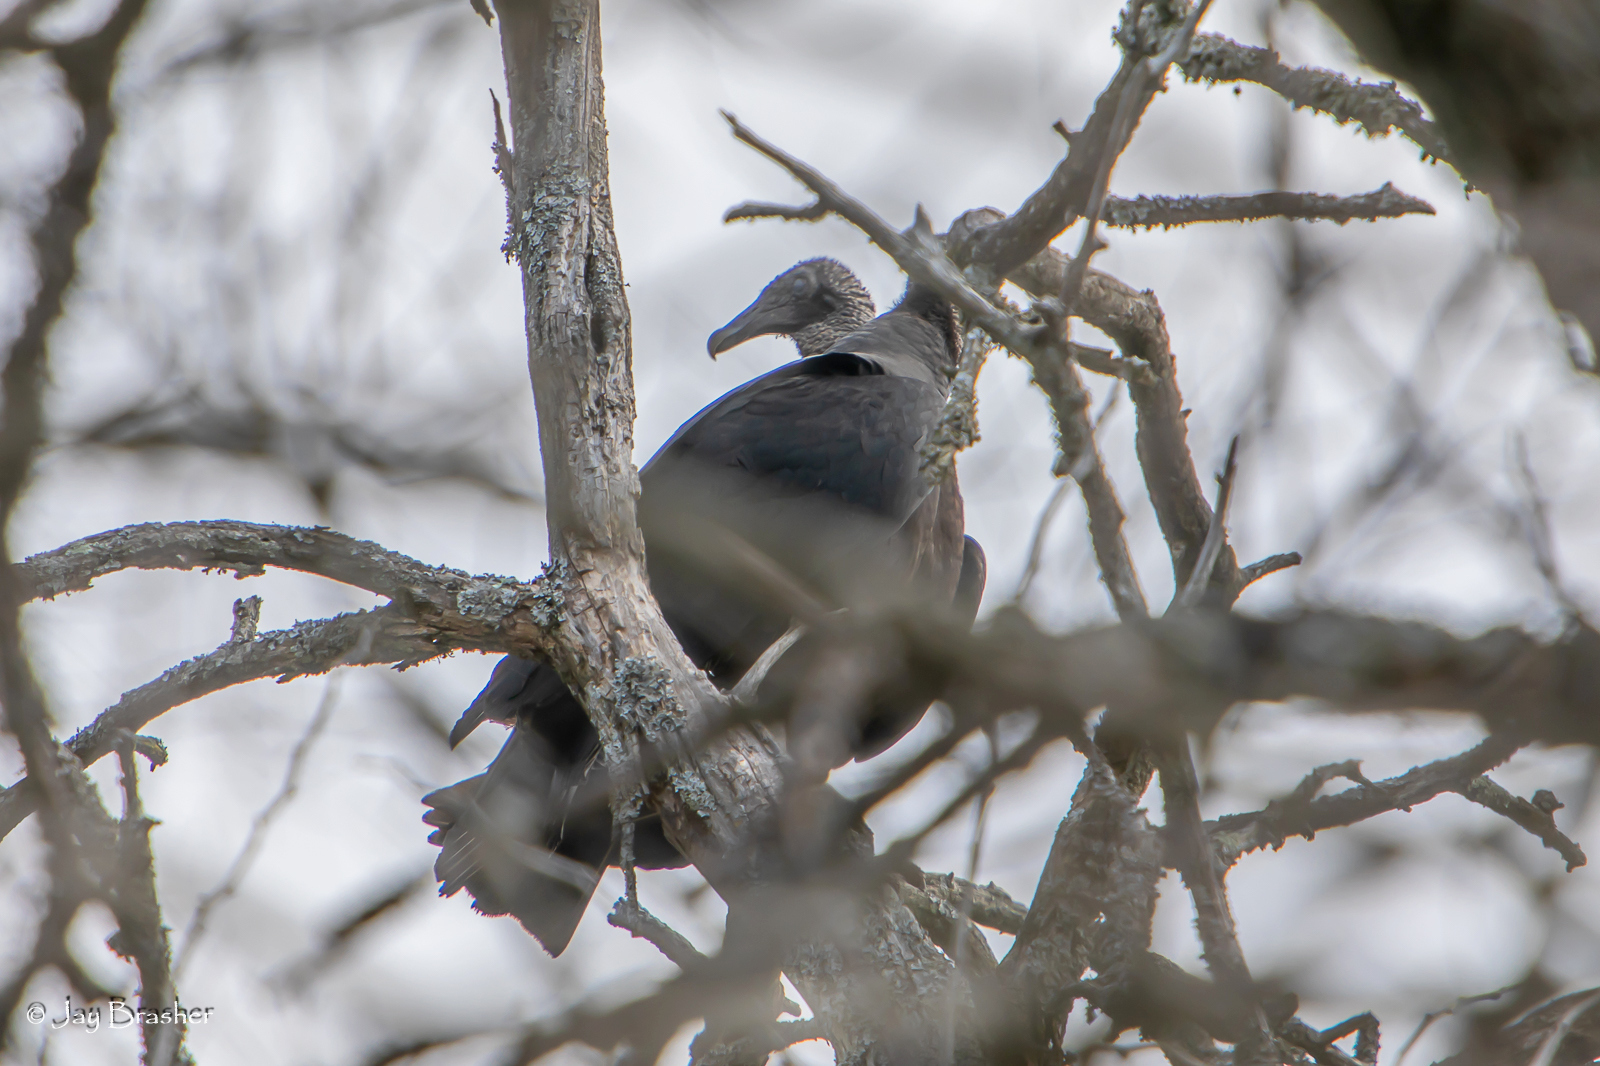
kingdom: Animalia
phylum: Chordata
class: Aves
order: Accipitriformes
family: Cathartidae
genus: Coragyps
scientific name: Coragyps atratus
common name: Black vulture
